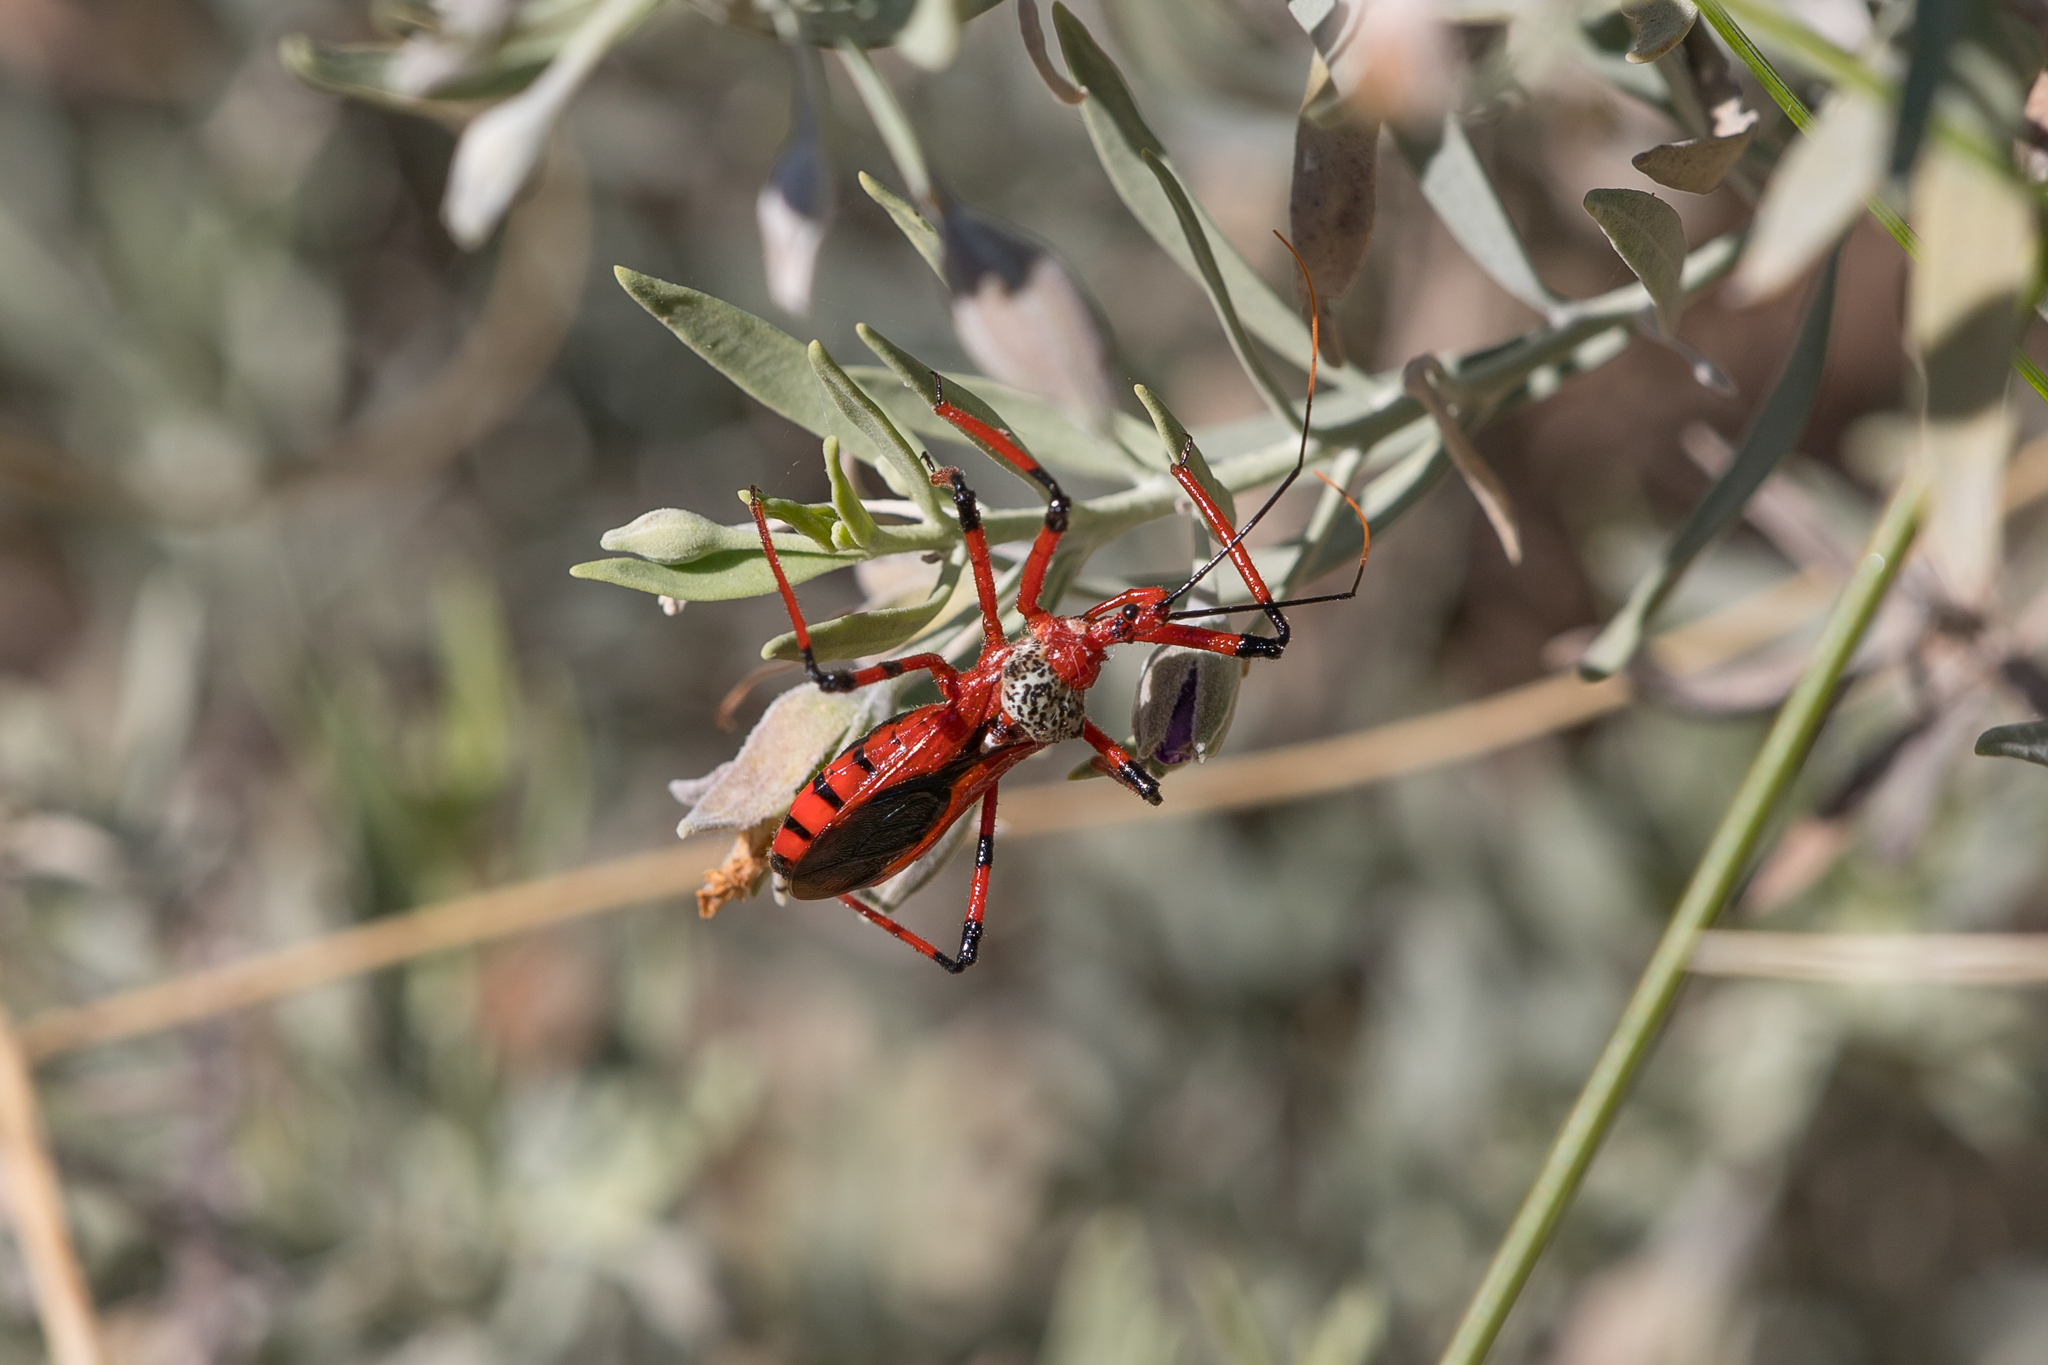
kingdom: Animalia
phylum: Arthropoda
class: Insecta
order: Hemiptera
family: Reduviidae
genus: Poecilosphodrus
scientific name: Poecilosphodrus gratiosus
